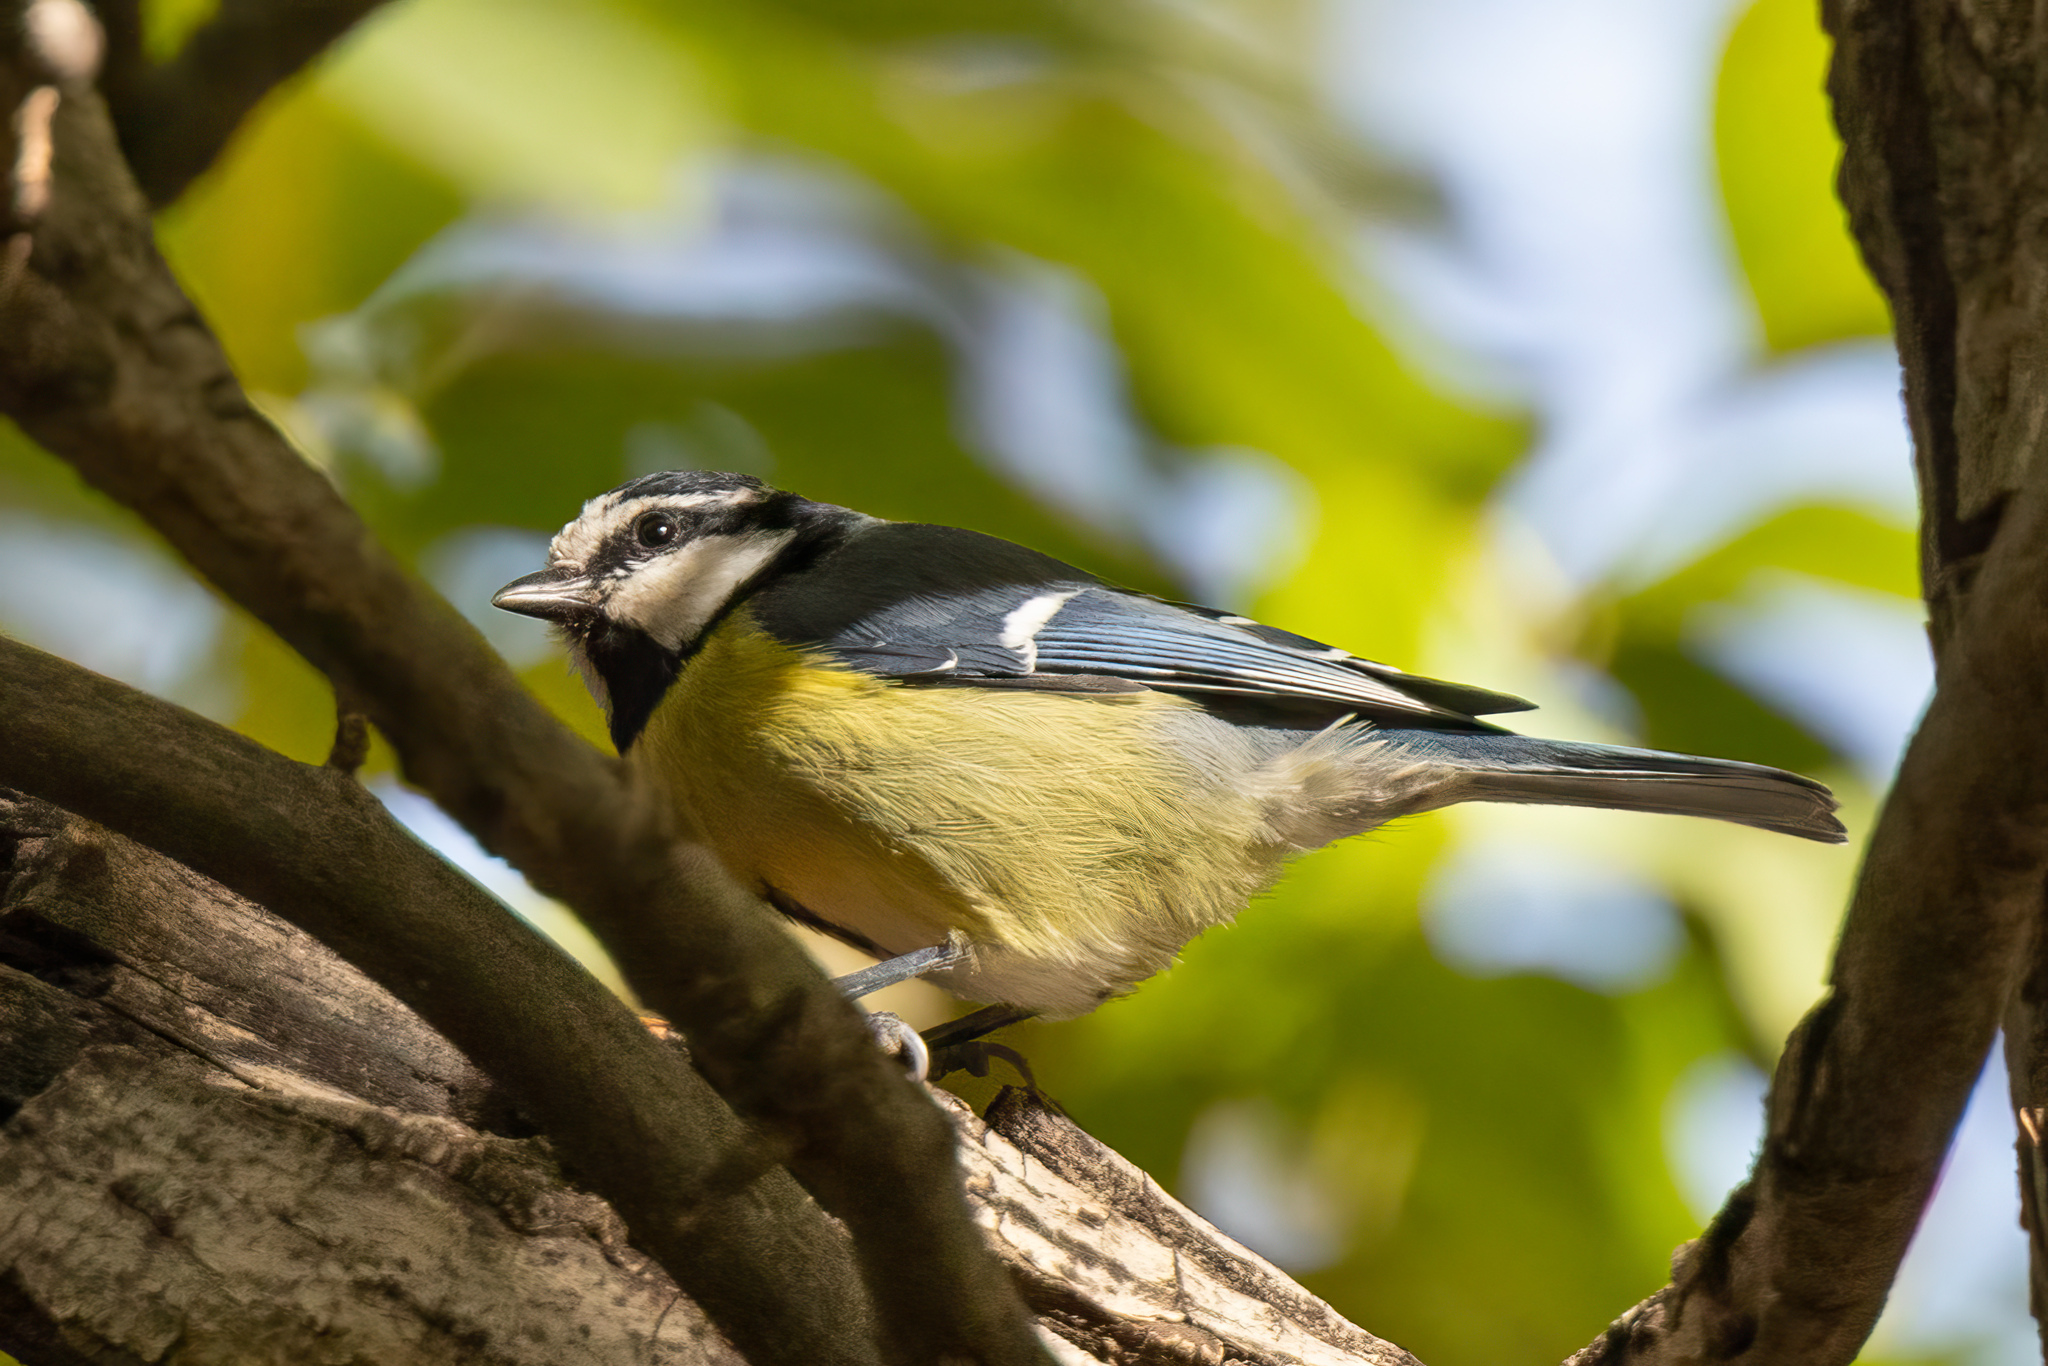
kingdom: Animalia
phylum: Chordata
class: Aves
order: Passeriformes
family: Paridae
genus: Cyanistes
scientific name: Cyanistes teneriffae
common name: African blue tit
